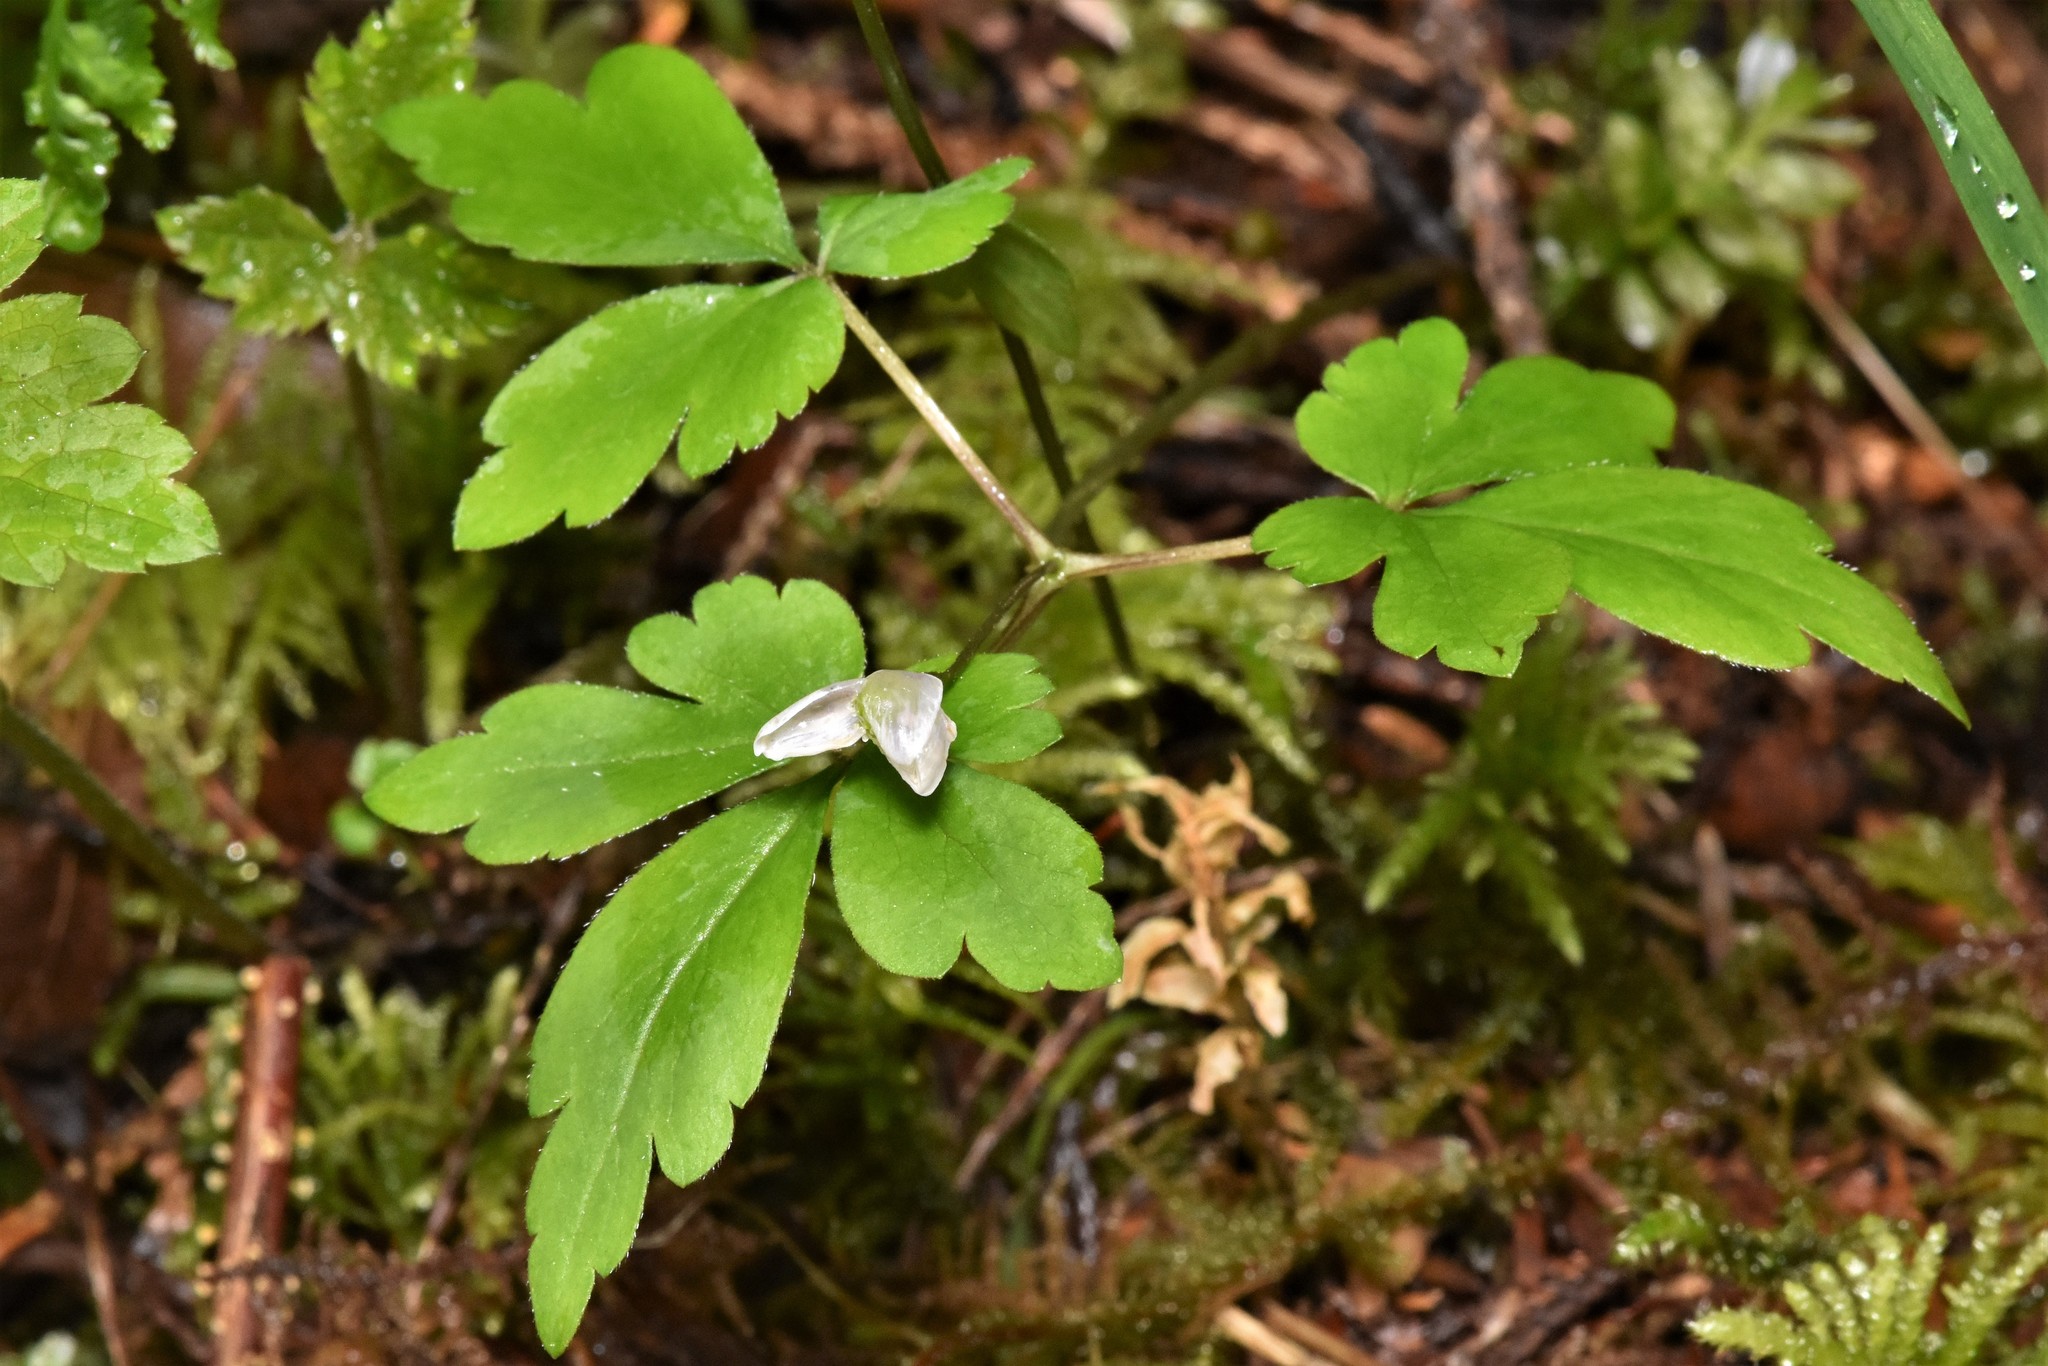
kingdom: Plantae
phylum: Tracheophyta
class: Magnoliopsida
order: Ranunculales
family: Ranunculaceae
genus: Anemone
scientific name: Anemone
